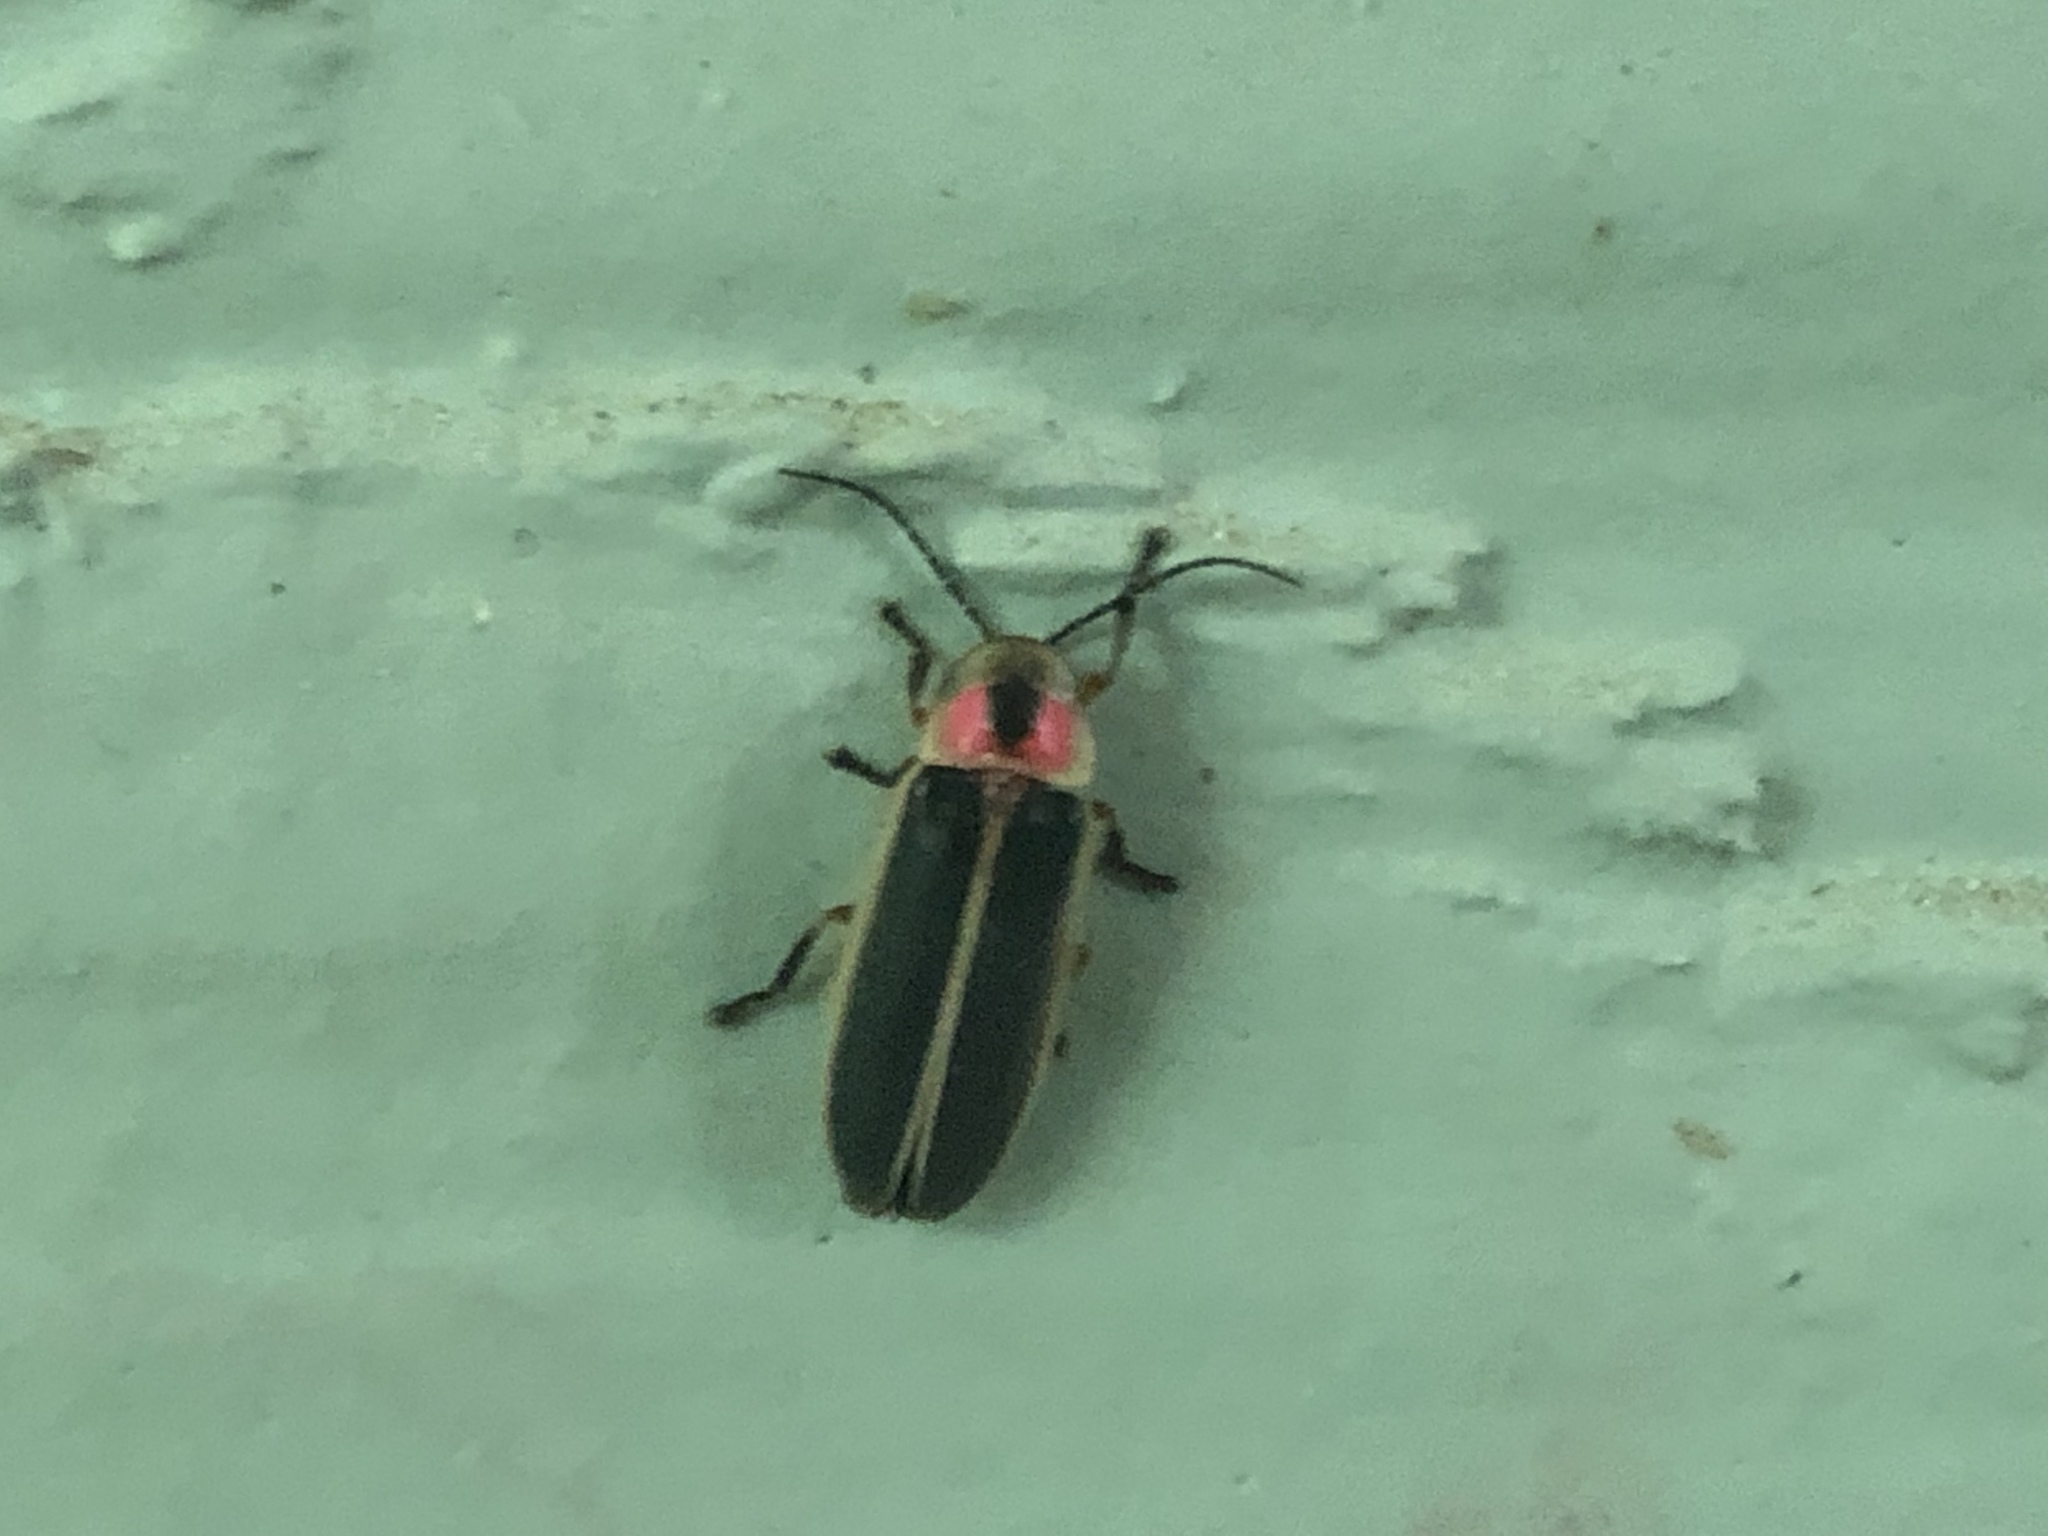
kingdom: Animalia
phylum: Arthropoda
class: Insecta
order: Coleoptera
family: Lampyridae
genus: Photinus
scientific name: Photinus pyralis
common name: Big dipper firefly
